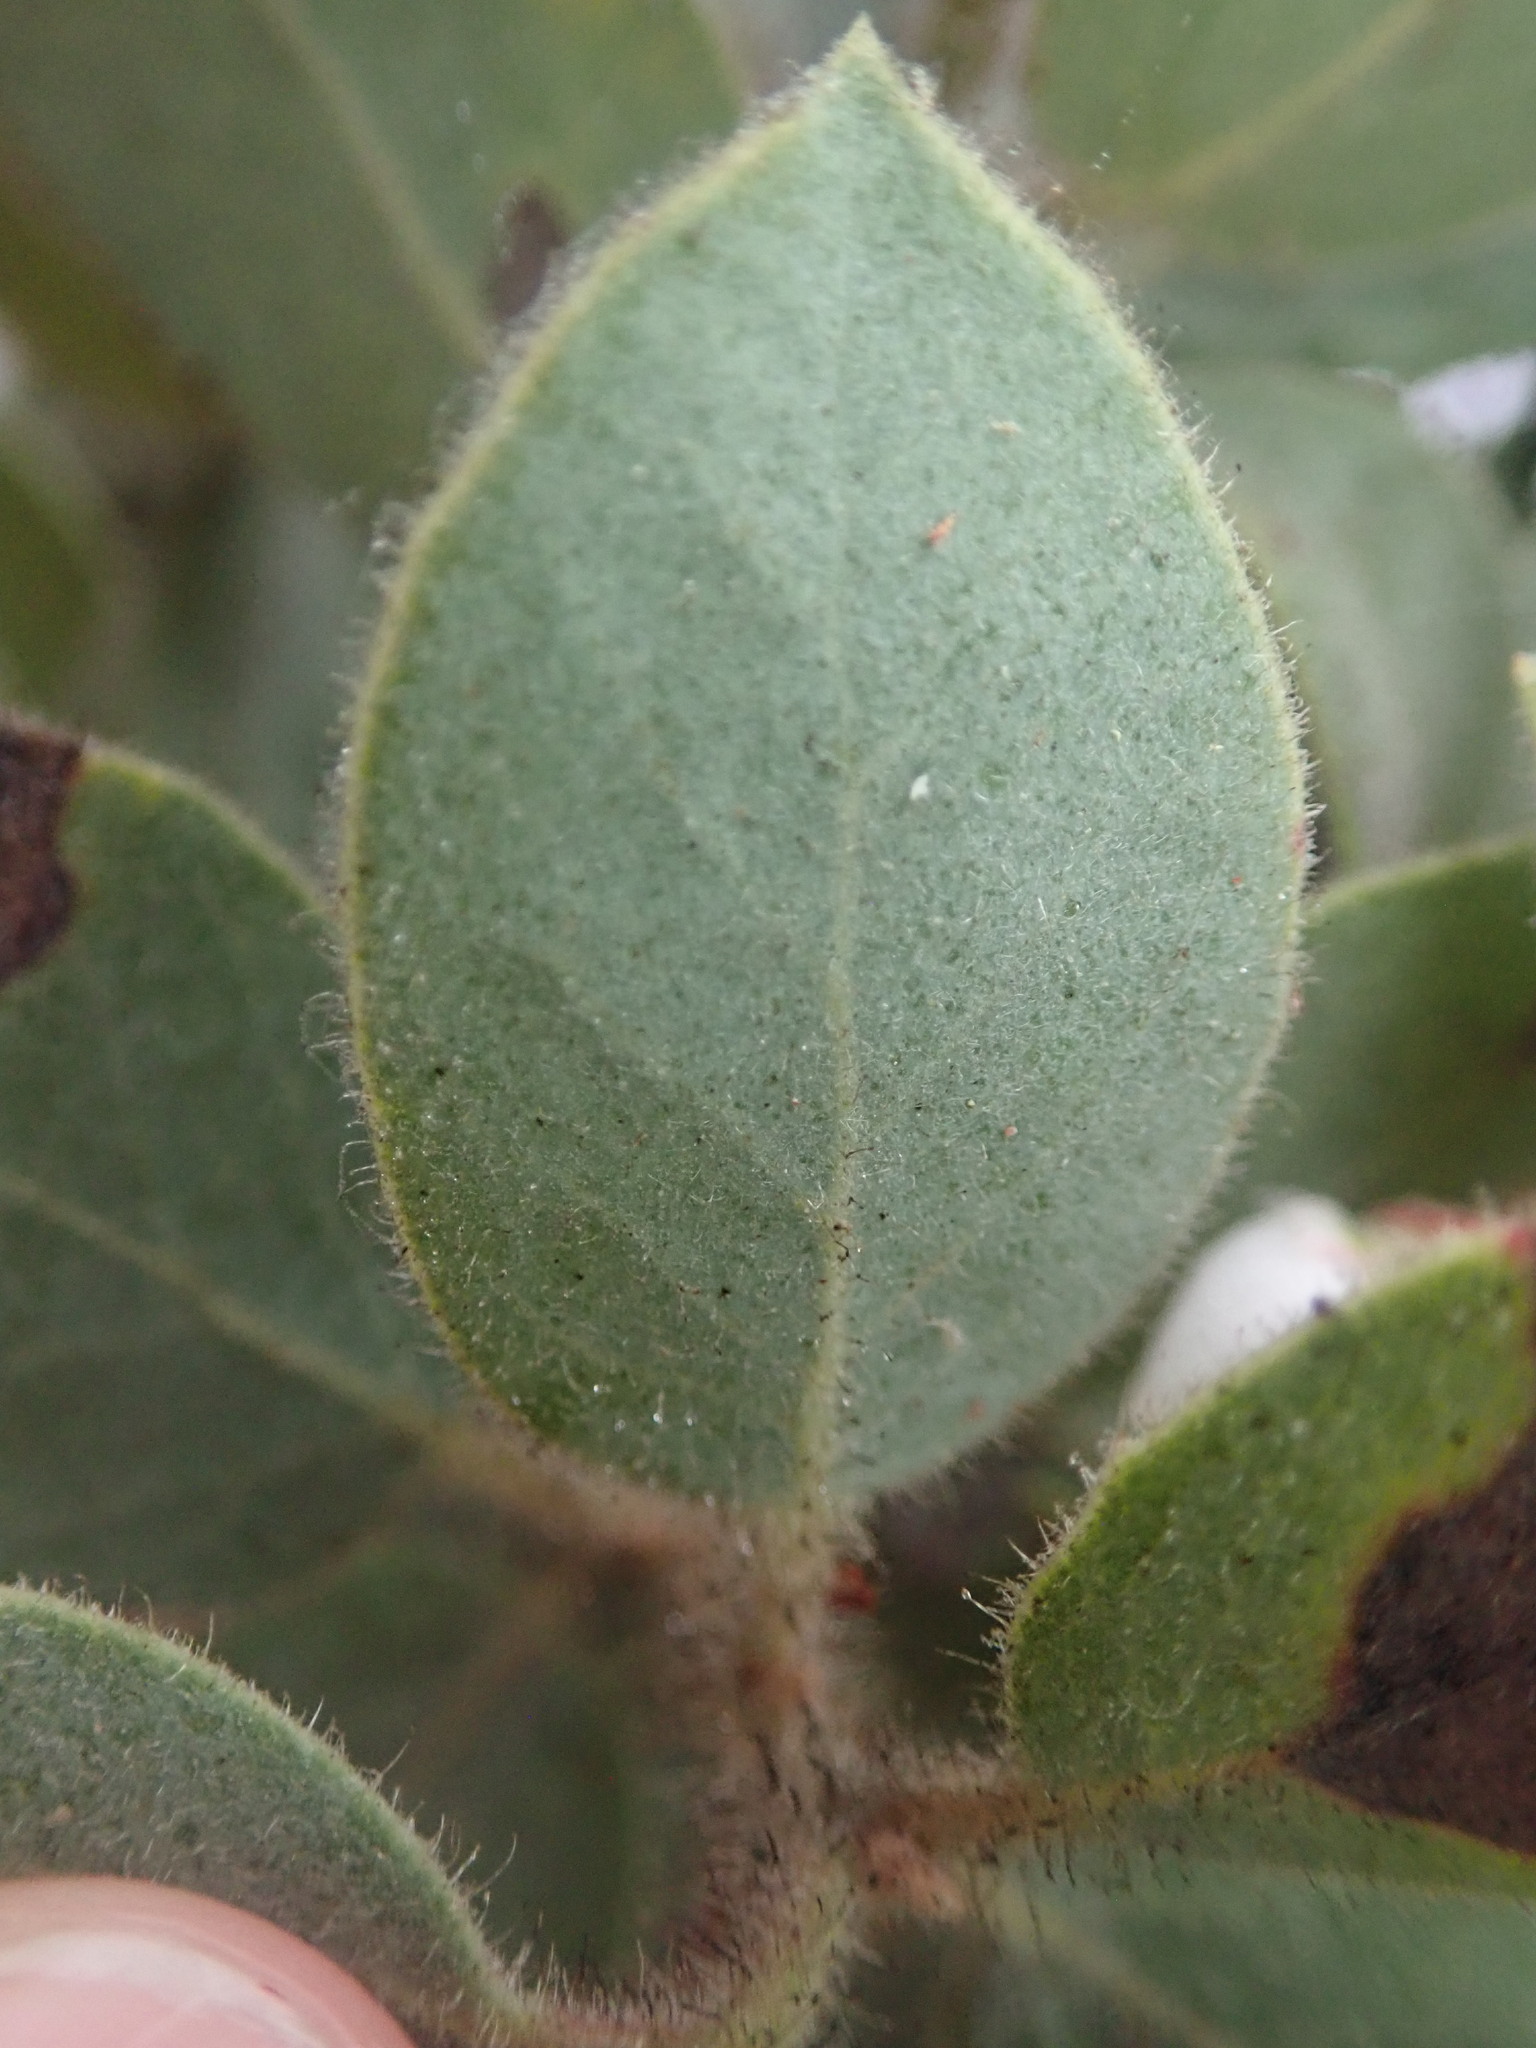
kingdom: Plantae
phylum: Tracheophyta
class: Magnoliopsida
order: Ericales
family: Ericaceae
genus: Arctostaphylos
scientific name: Arctostaphylos glandulosa
